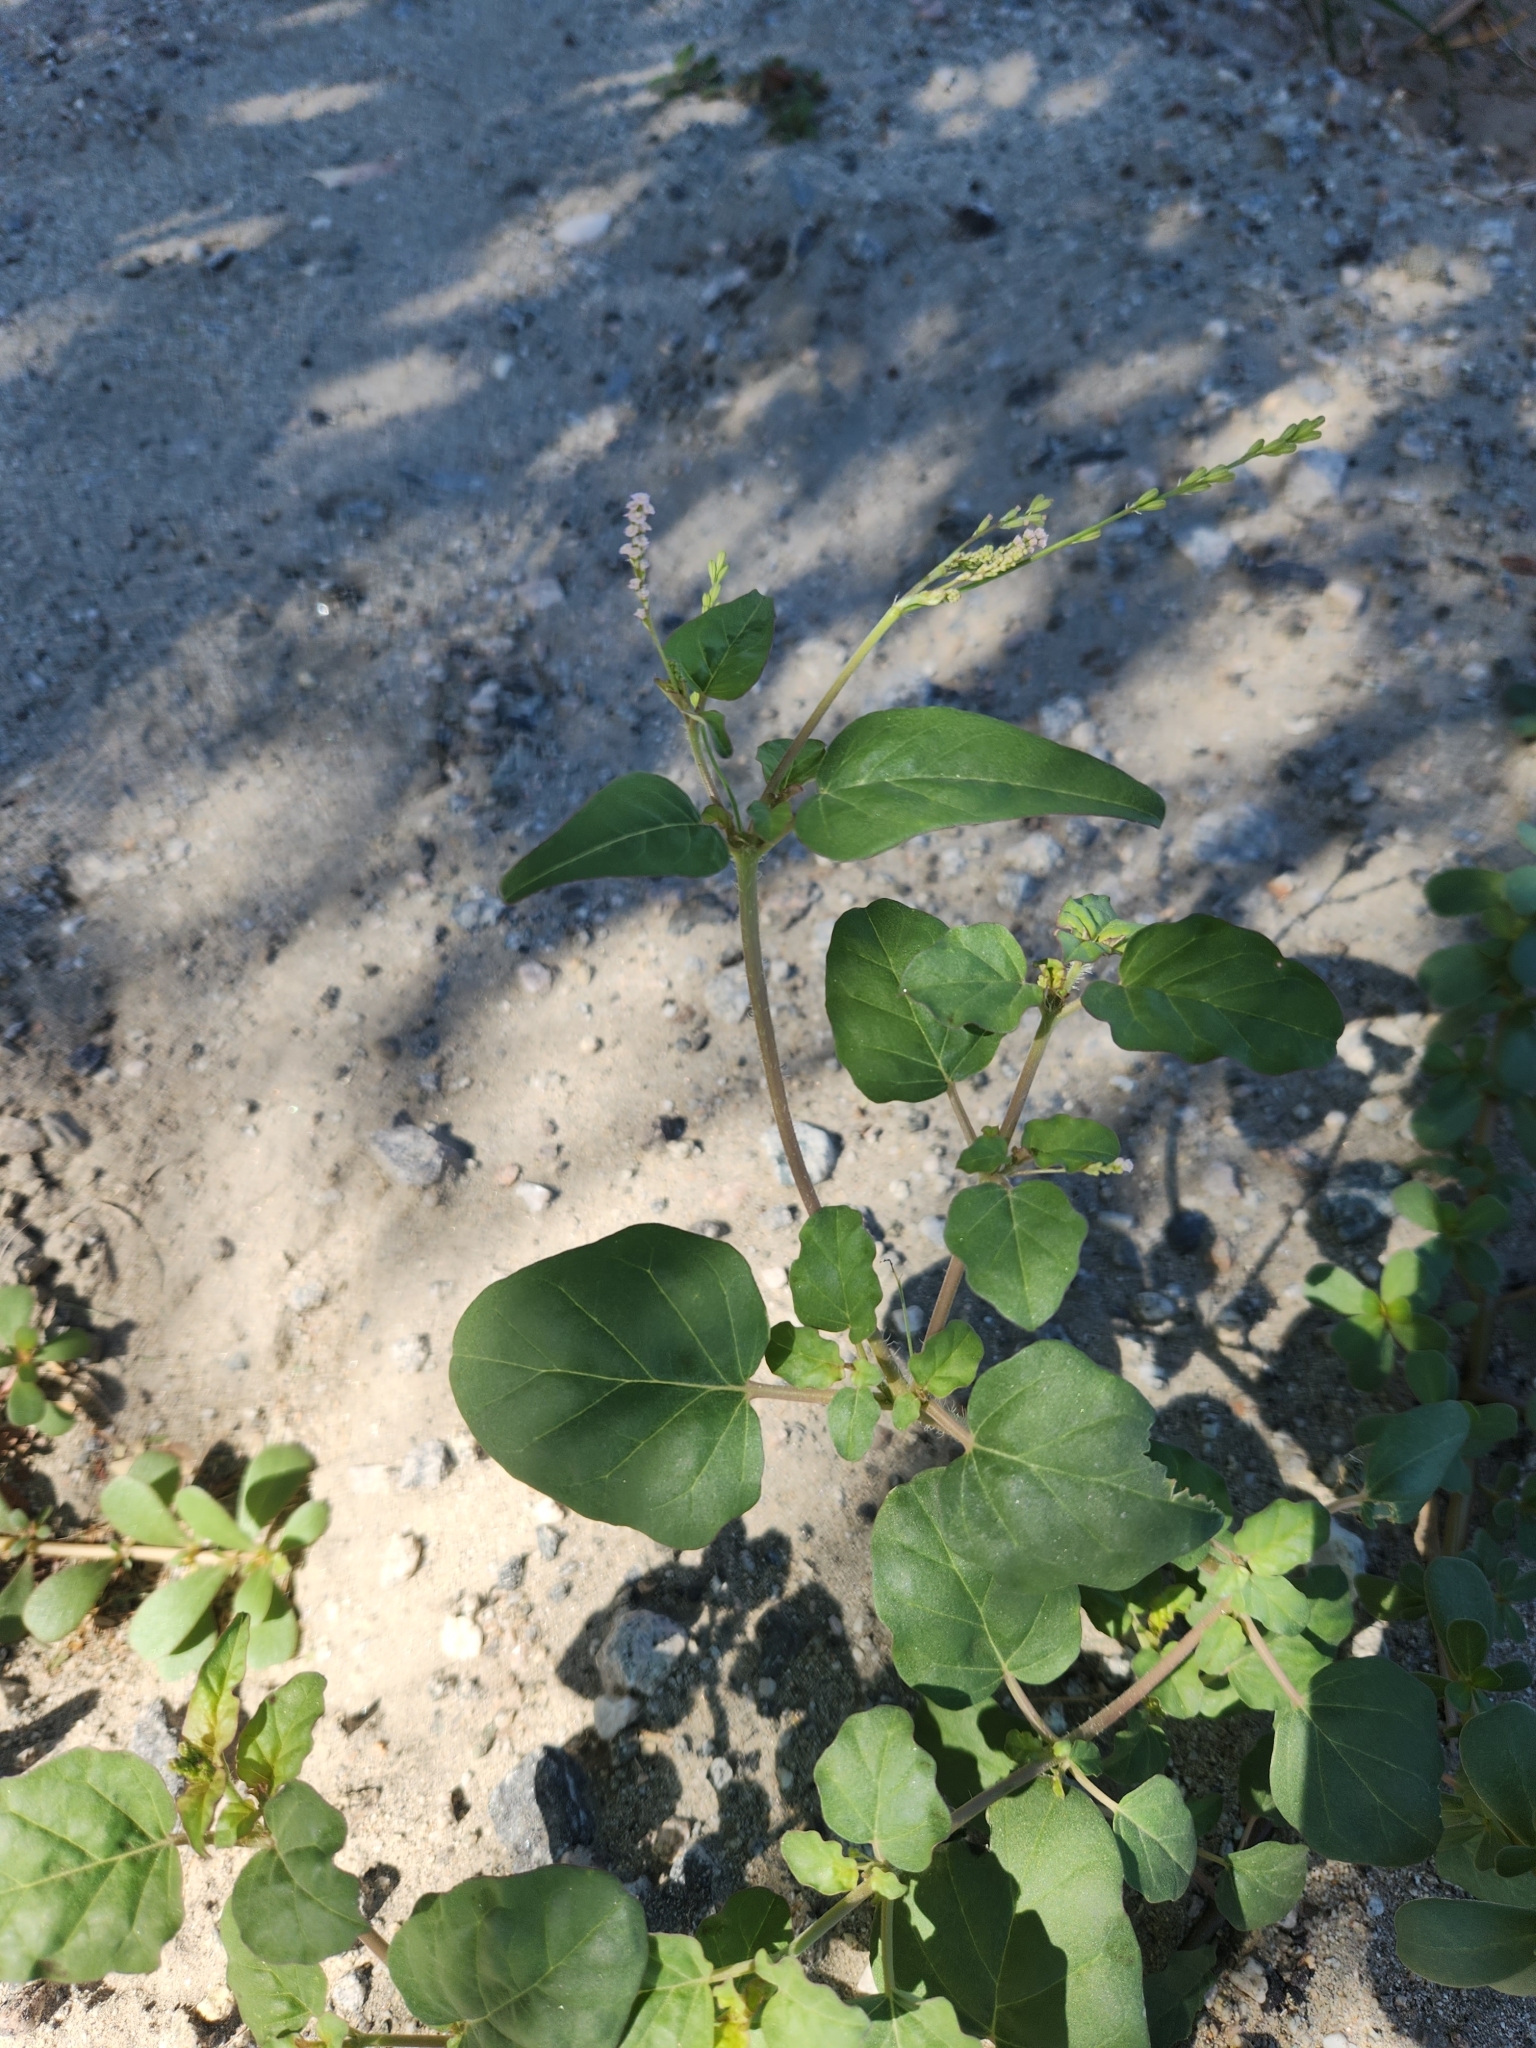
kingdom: Plantae
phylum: Tracheophyta
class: Magnoliopsida
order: Caryophyllales
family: Nyctaginaceae
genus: Boerhavia
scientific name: Boerhavia wrightii
